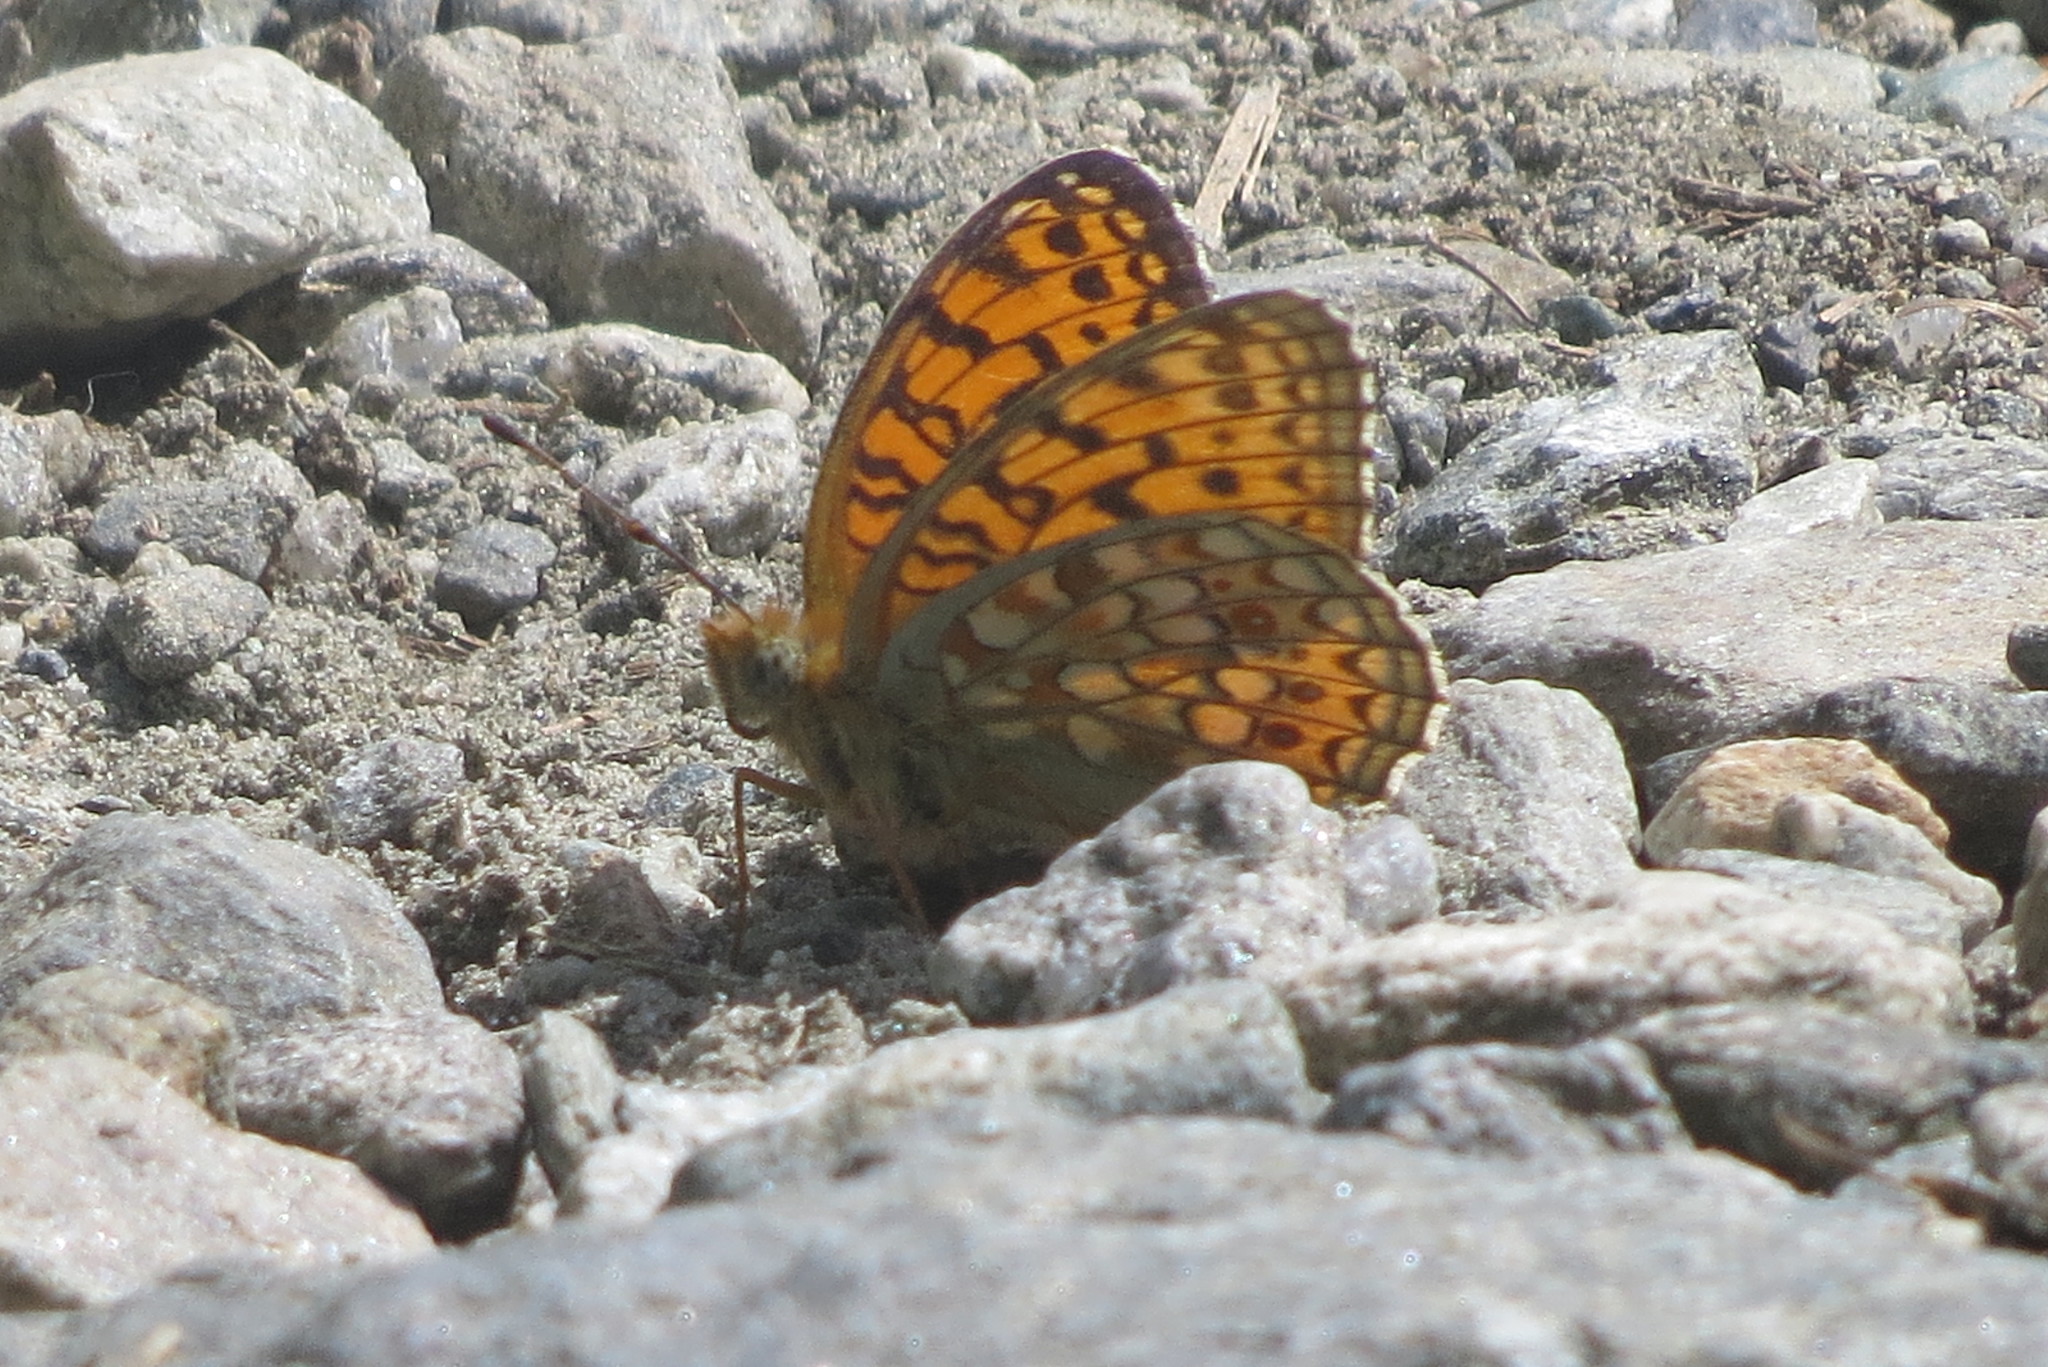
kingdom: Animalia
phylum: Arthropoda
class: Insecta
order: Lepidoptera
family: Nymphalidae
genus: Fabriciana
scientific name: Fabriciana niobe
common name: Niobe fritillary
